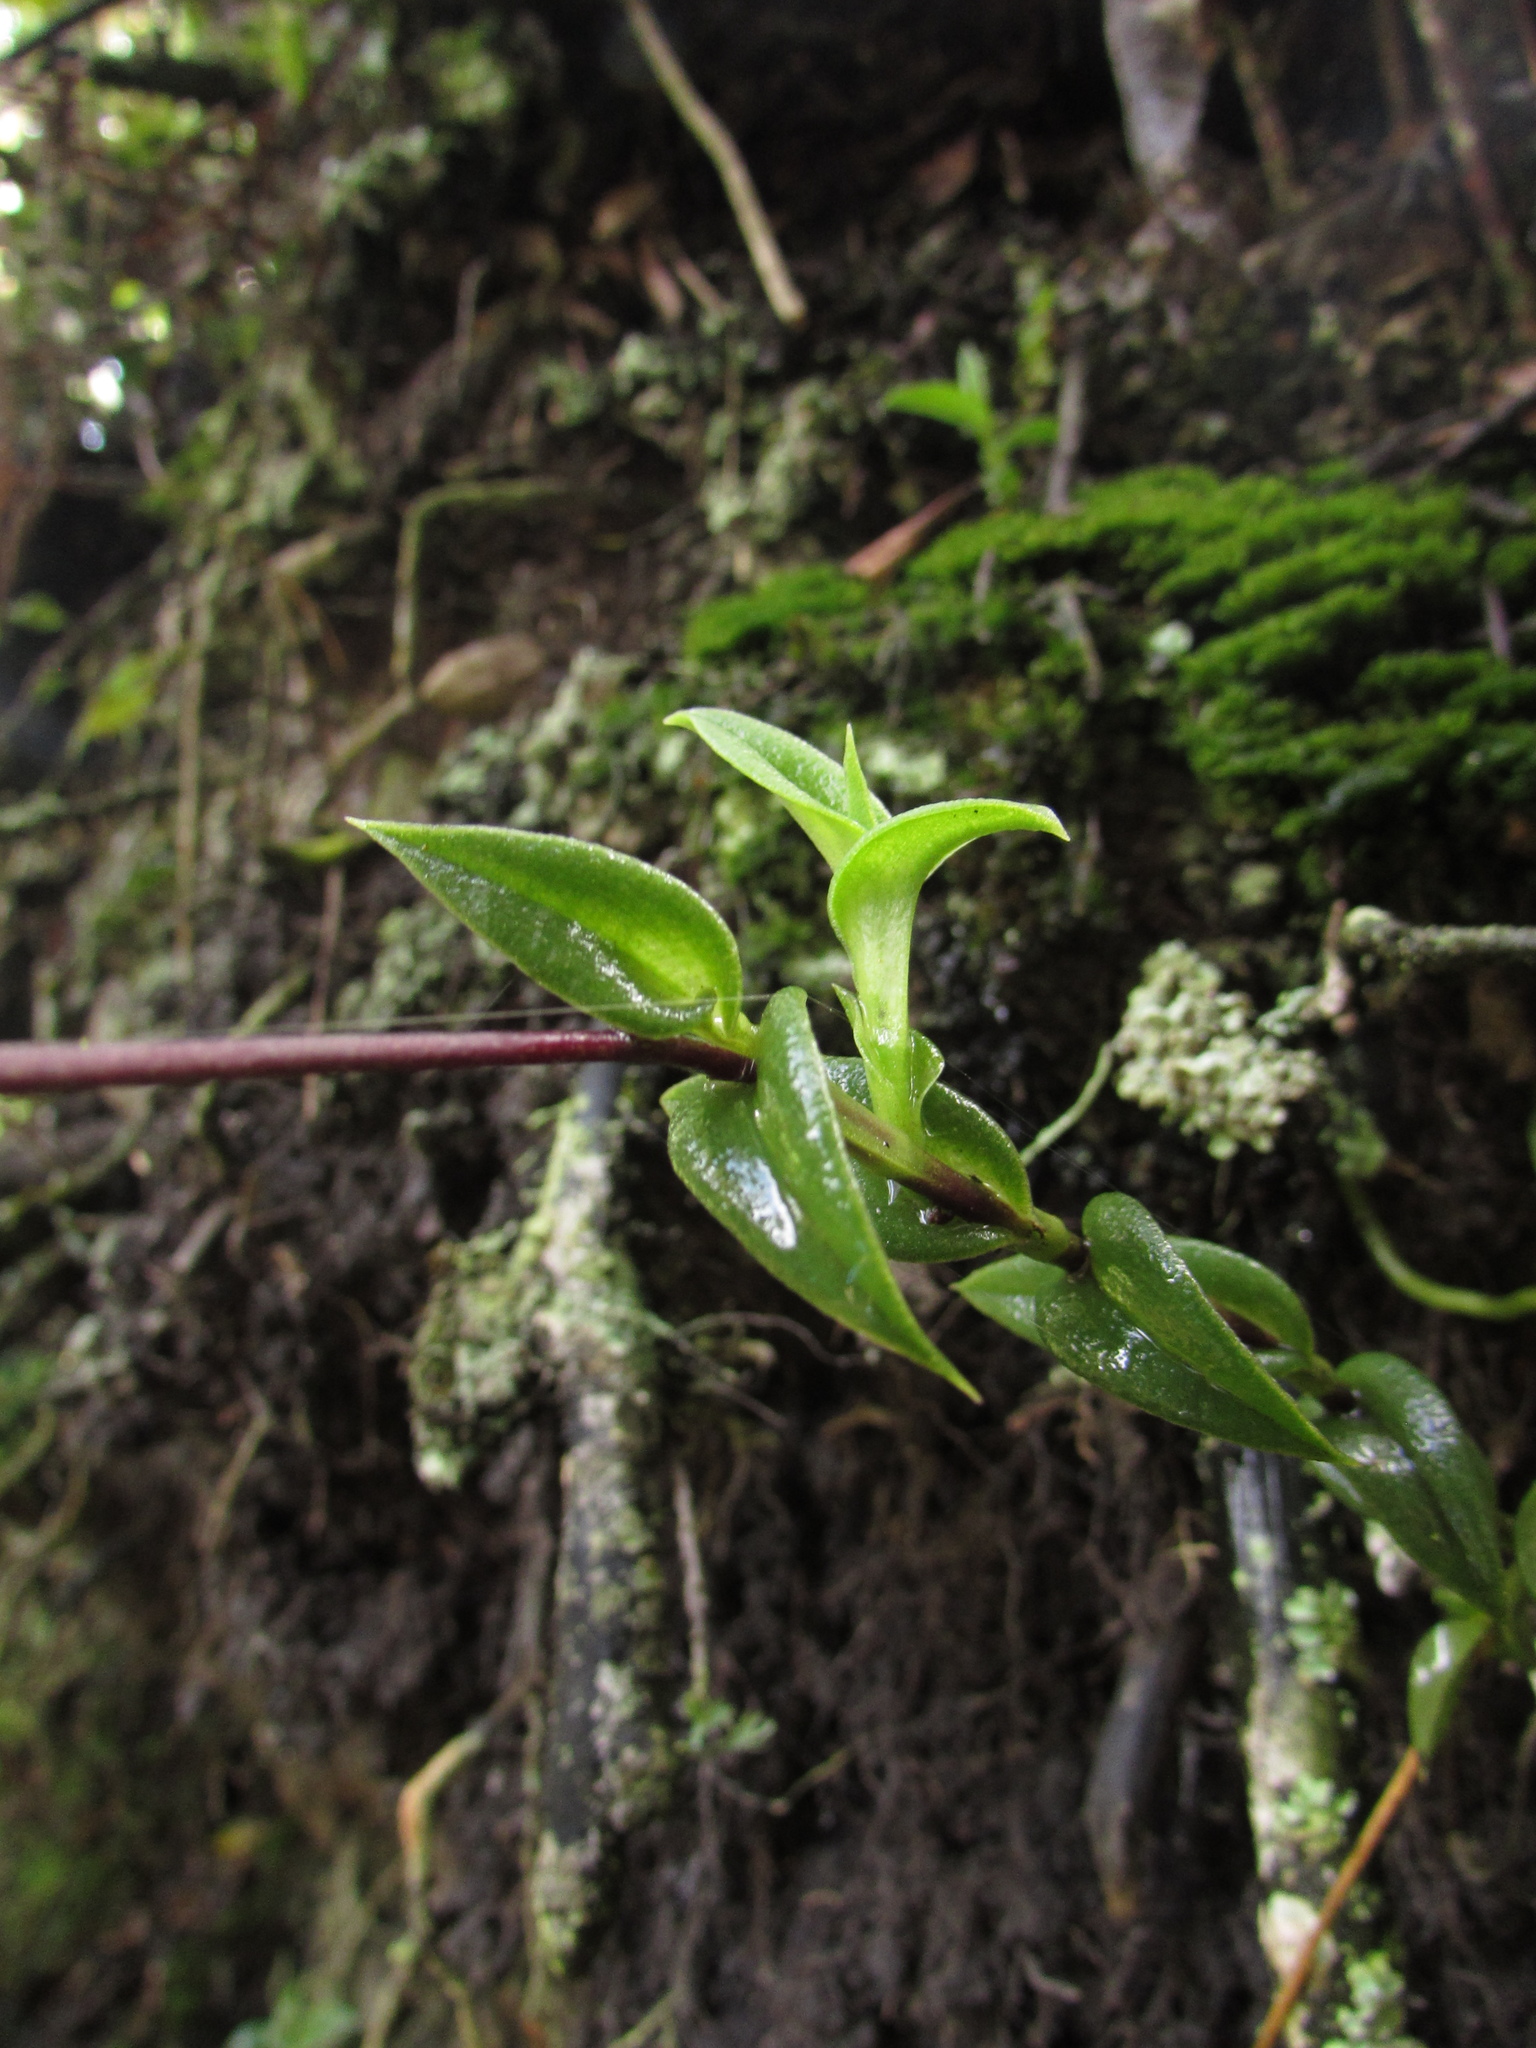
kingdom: Plantae
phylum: Tracheophyta
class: Liliopsida
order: Asparagales
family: Orchidaceae
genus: Telipogon
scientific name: Telipogon nervosus
